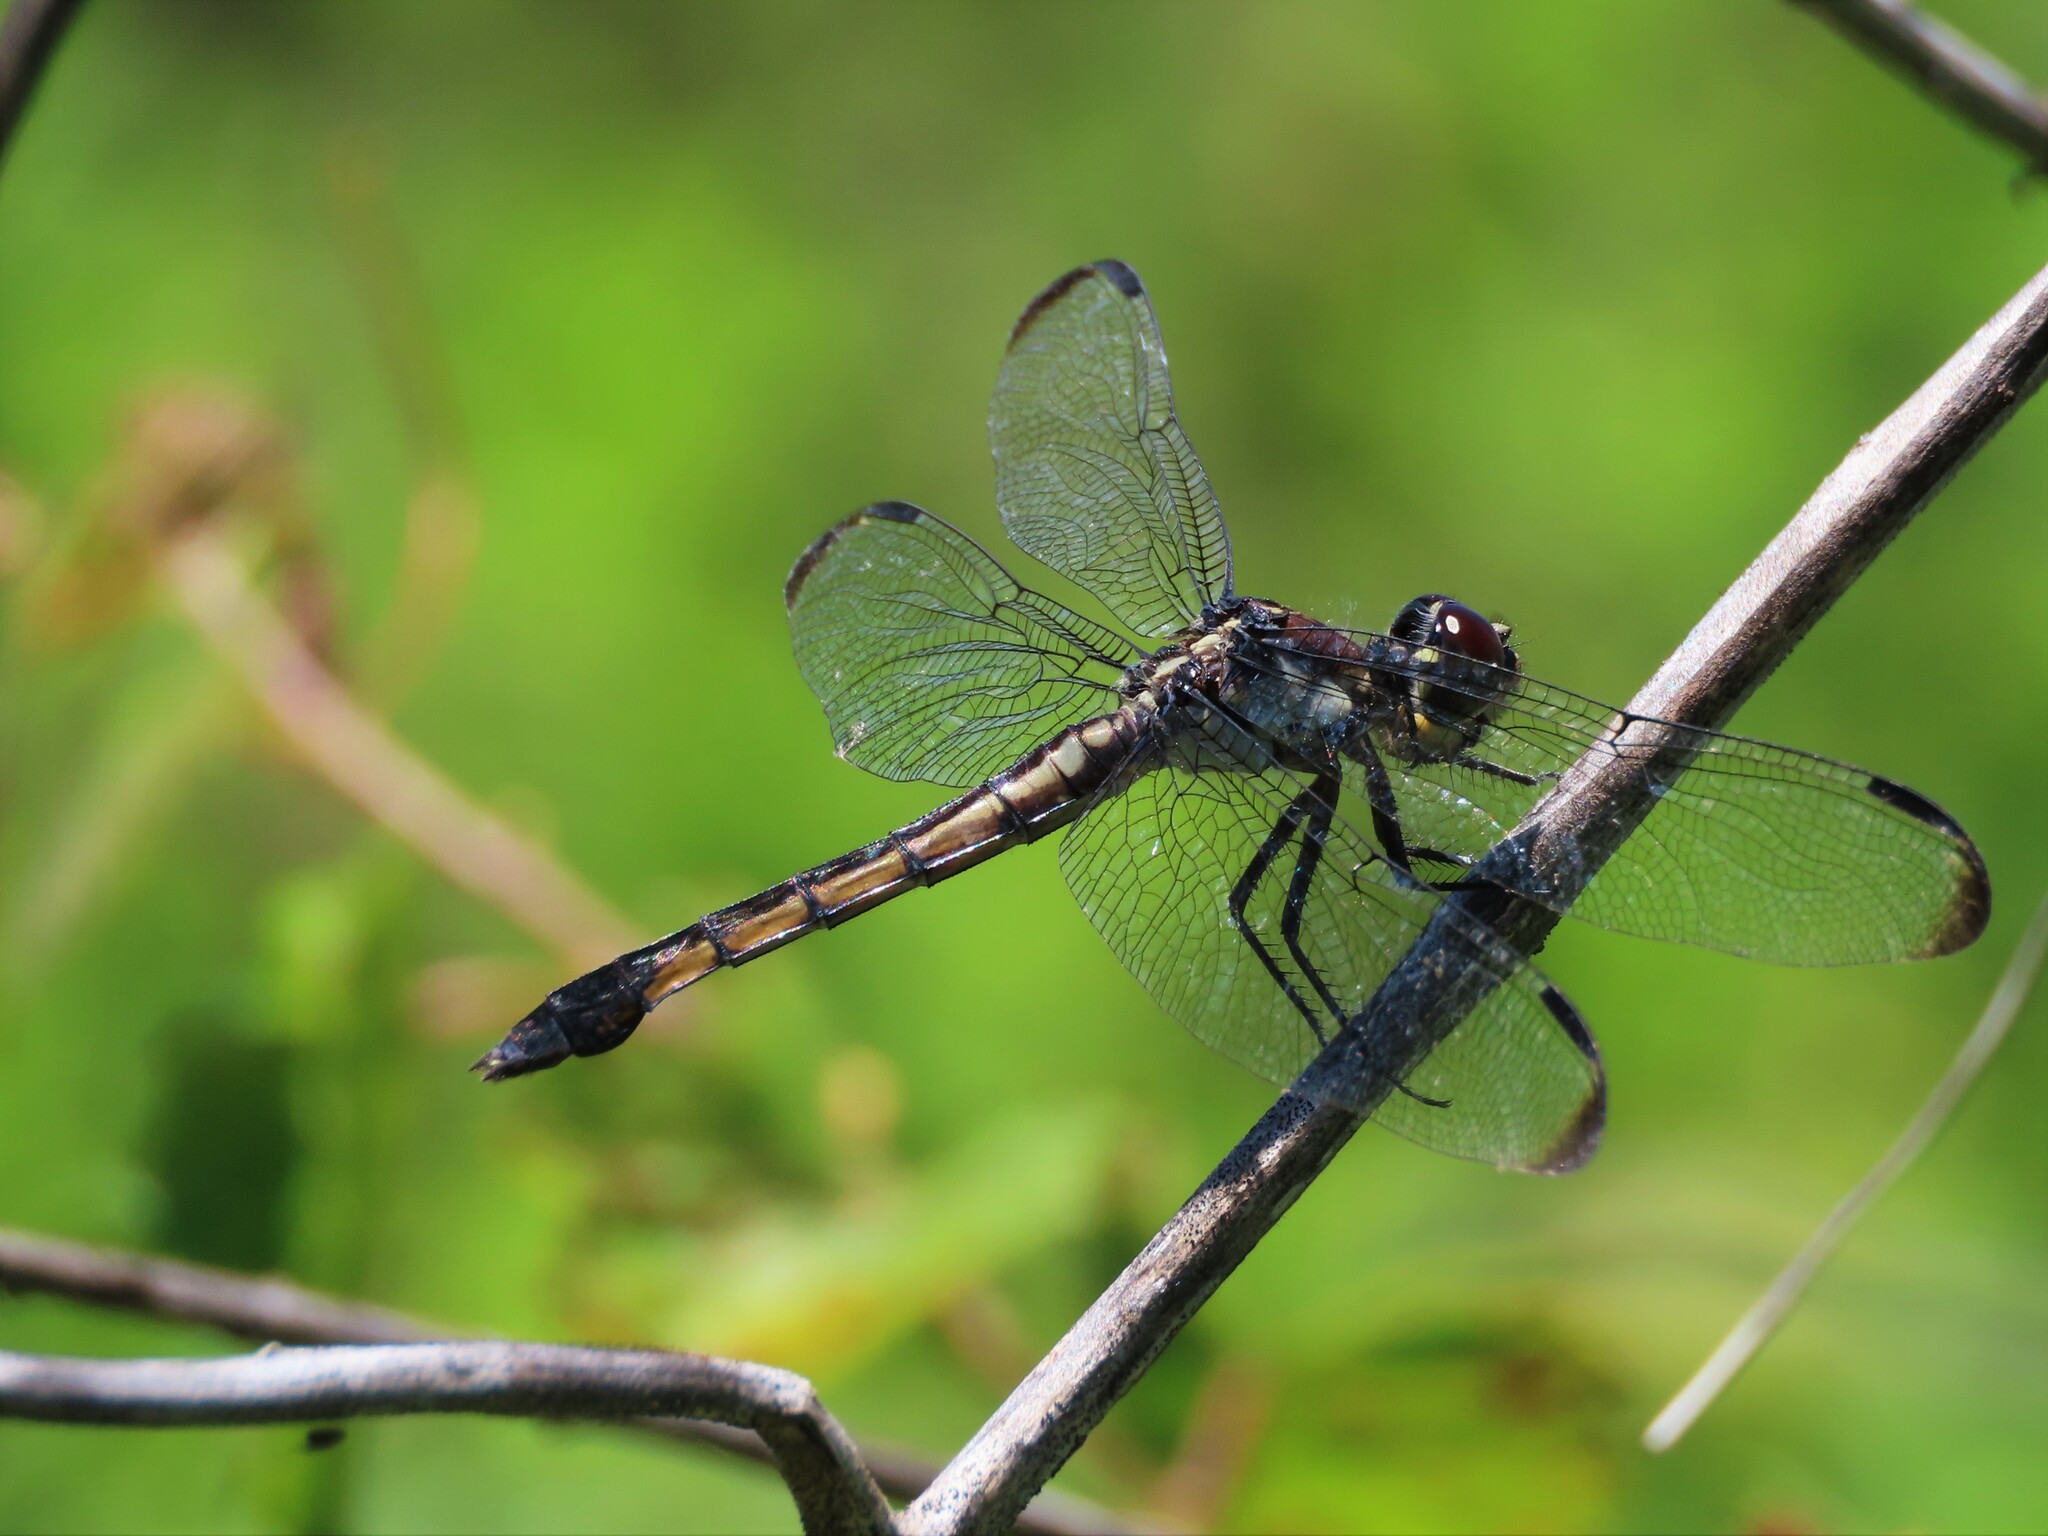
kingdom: Animalia
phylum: Arthropoda
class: Insecta
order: Odonata
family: Libellulidae
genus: Libellula
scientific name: Libellula incesta
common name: Slaty skimmer
